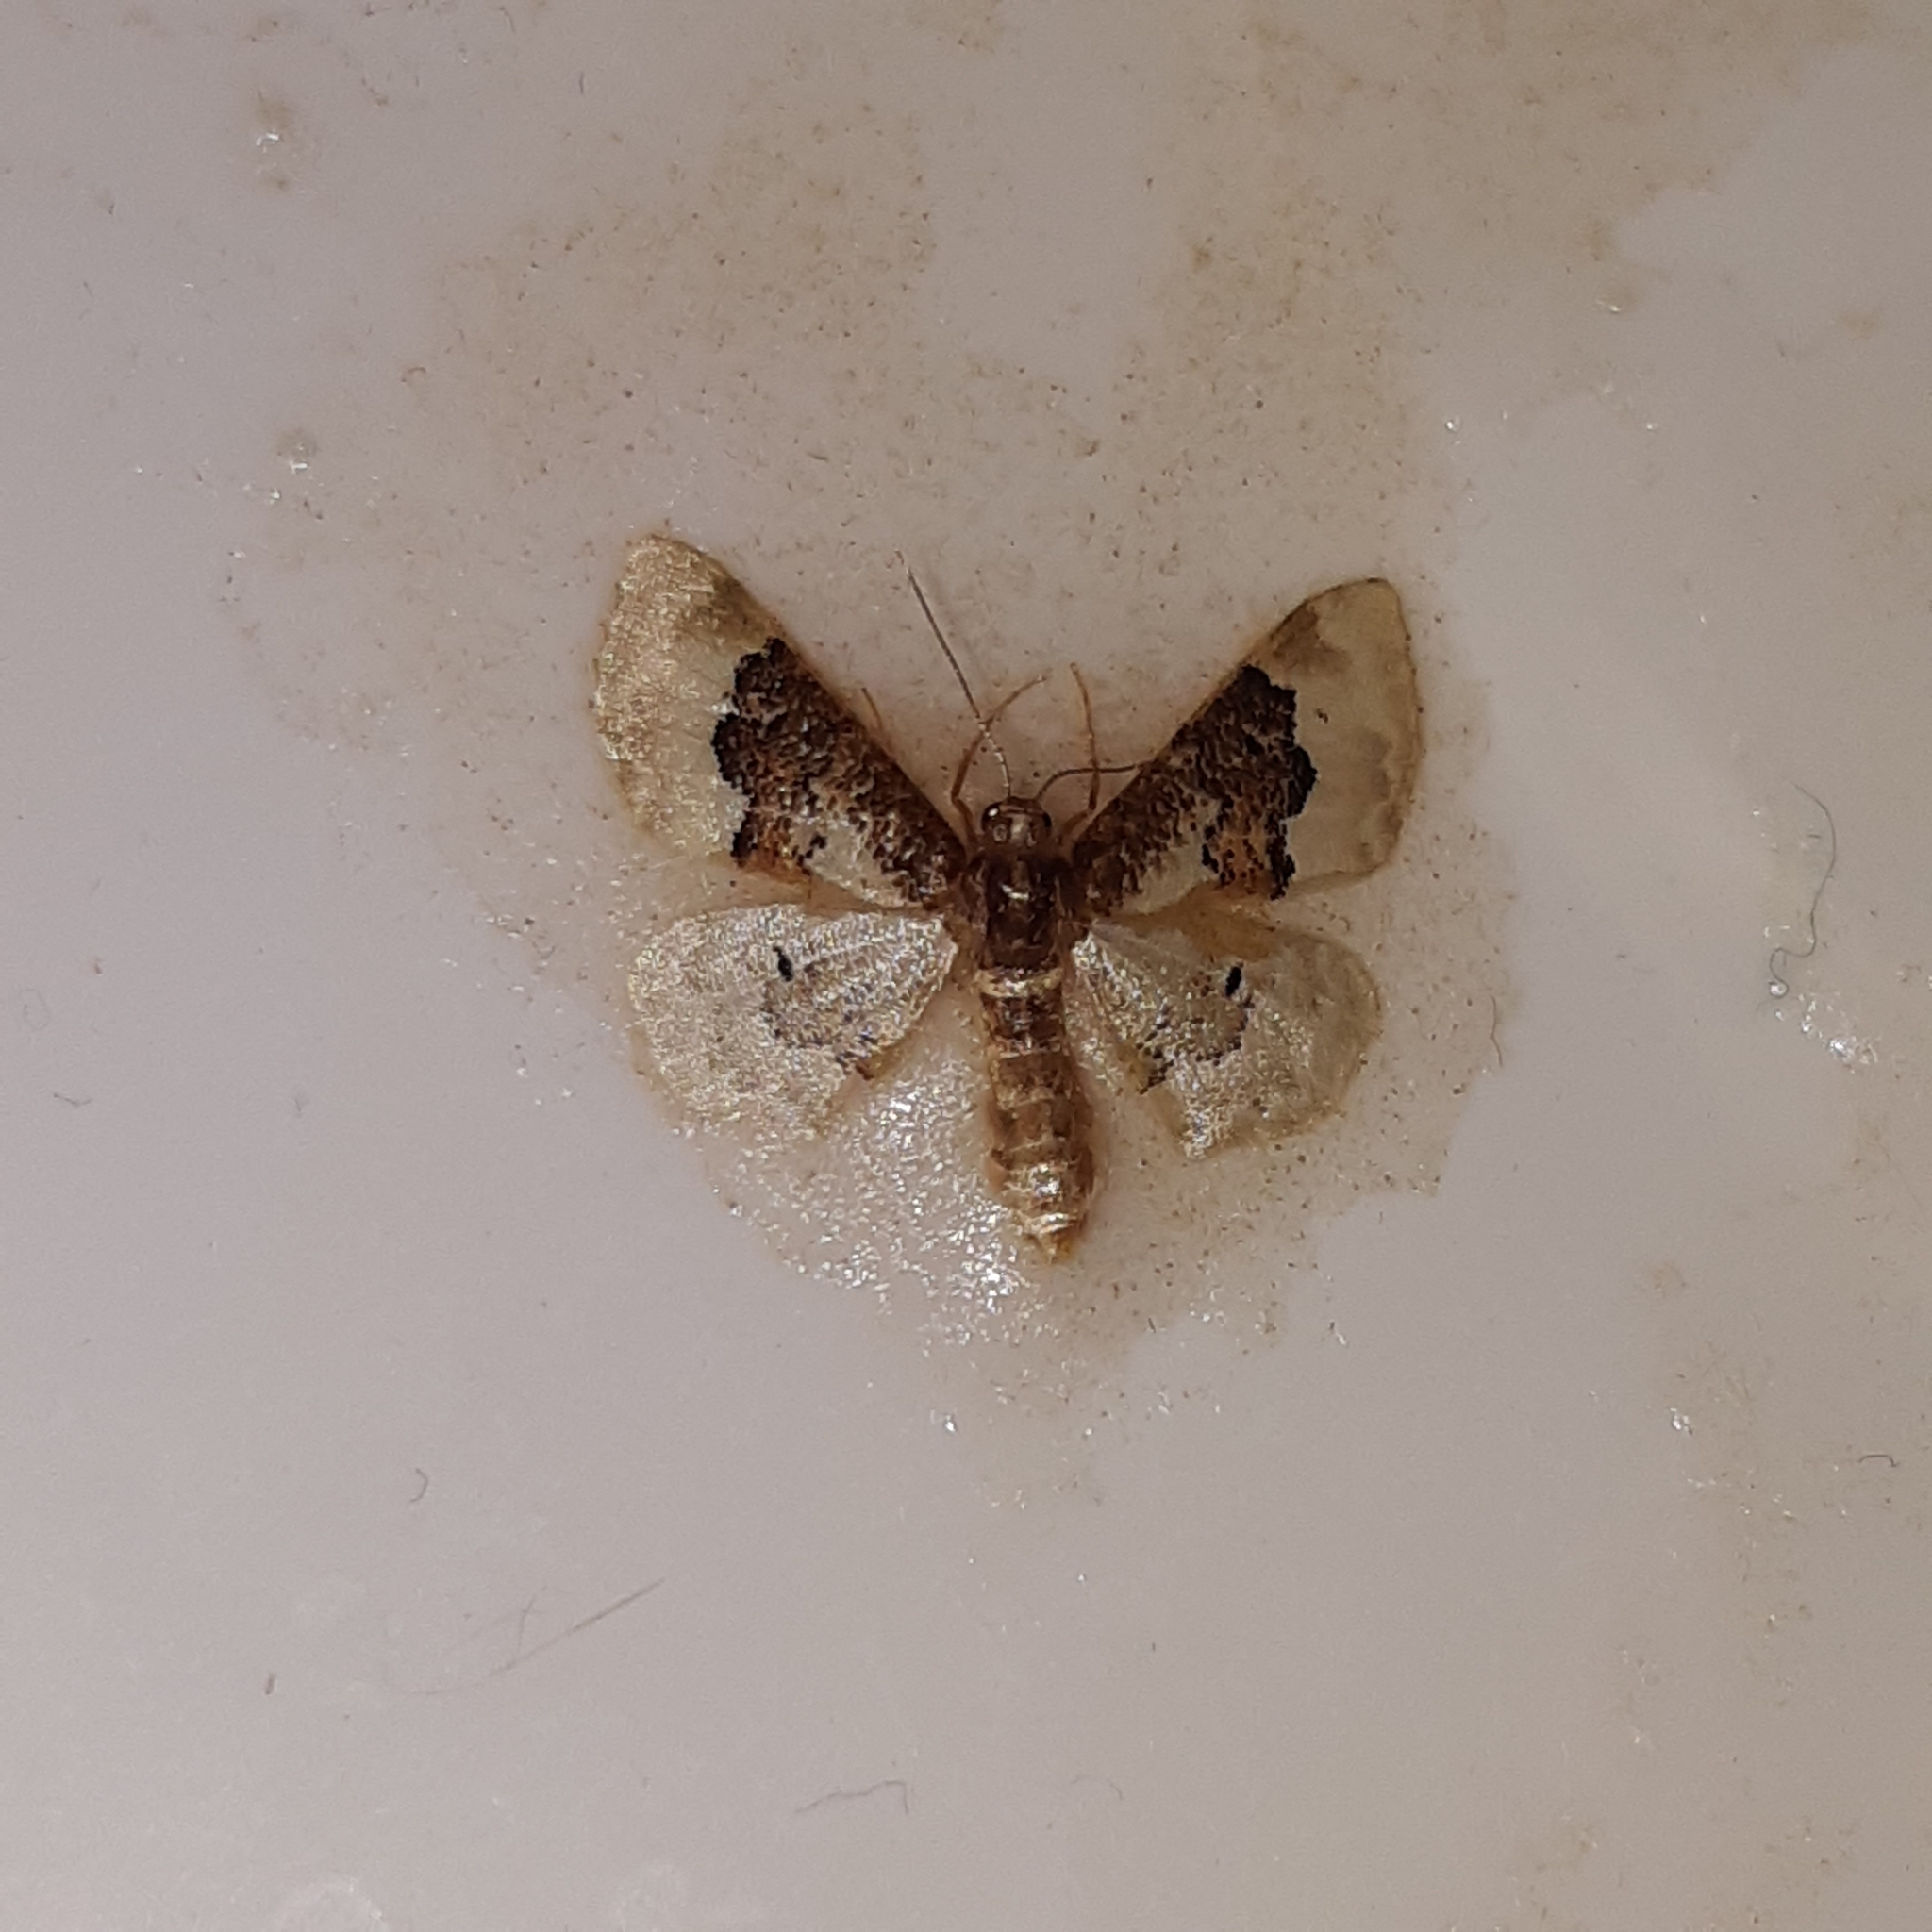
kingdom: Animalia
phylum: Arthropoda
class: Insecta
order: Lepidoptera
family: Geometridae
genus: Idaea
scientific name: Idaea rusticata
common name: Least carpet
